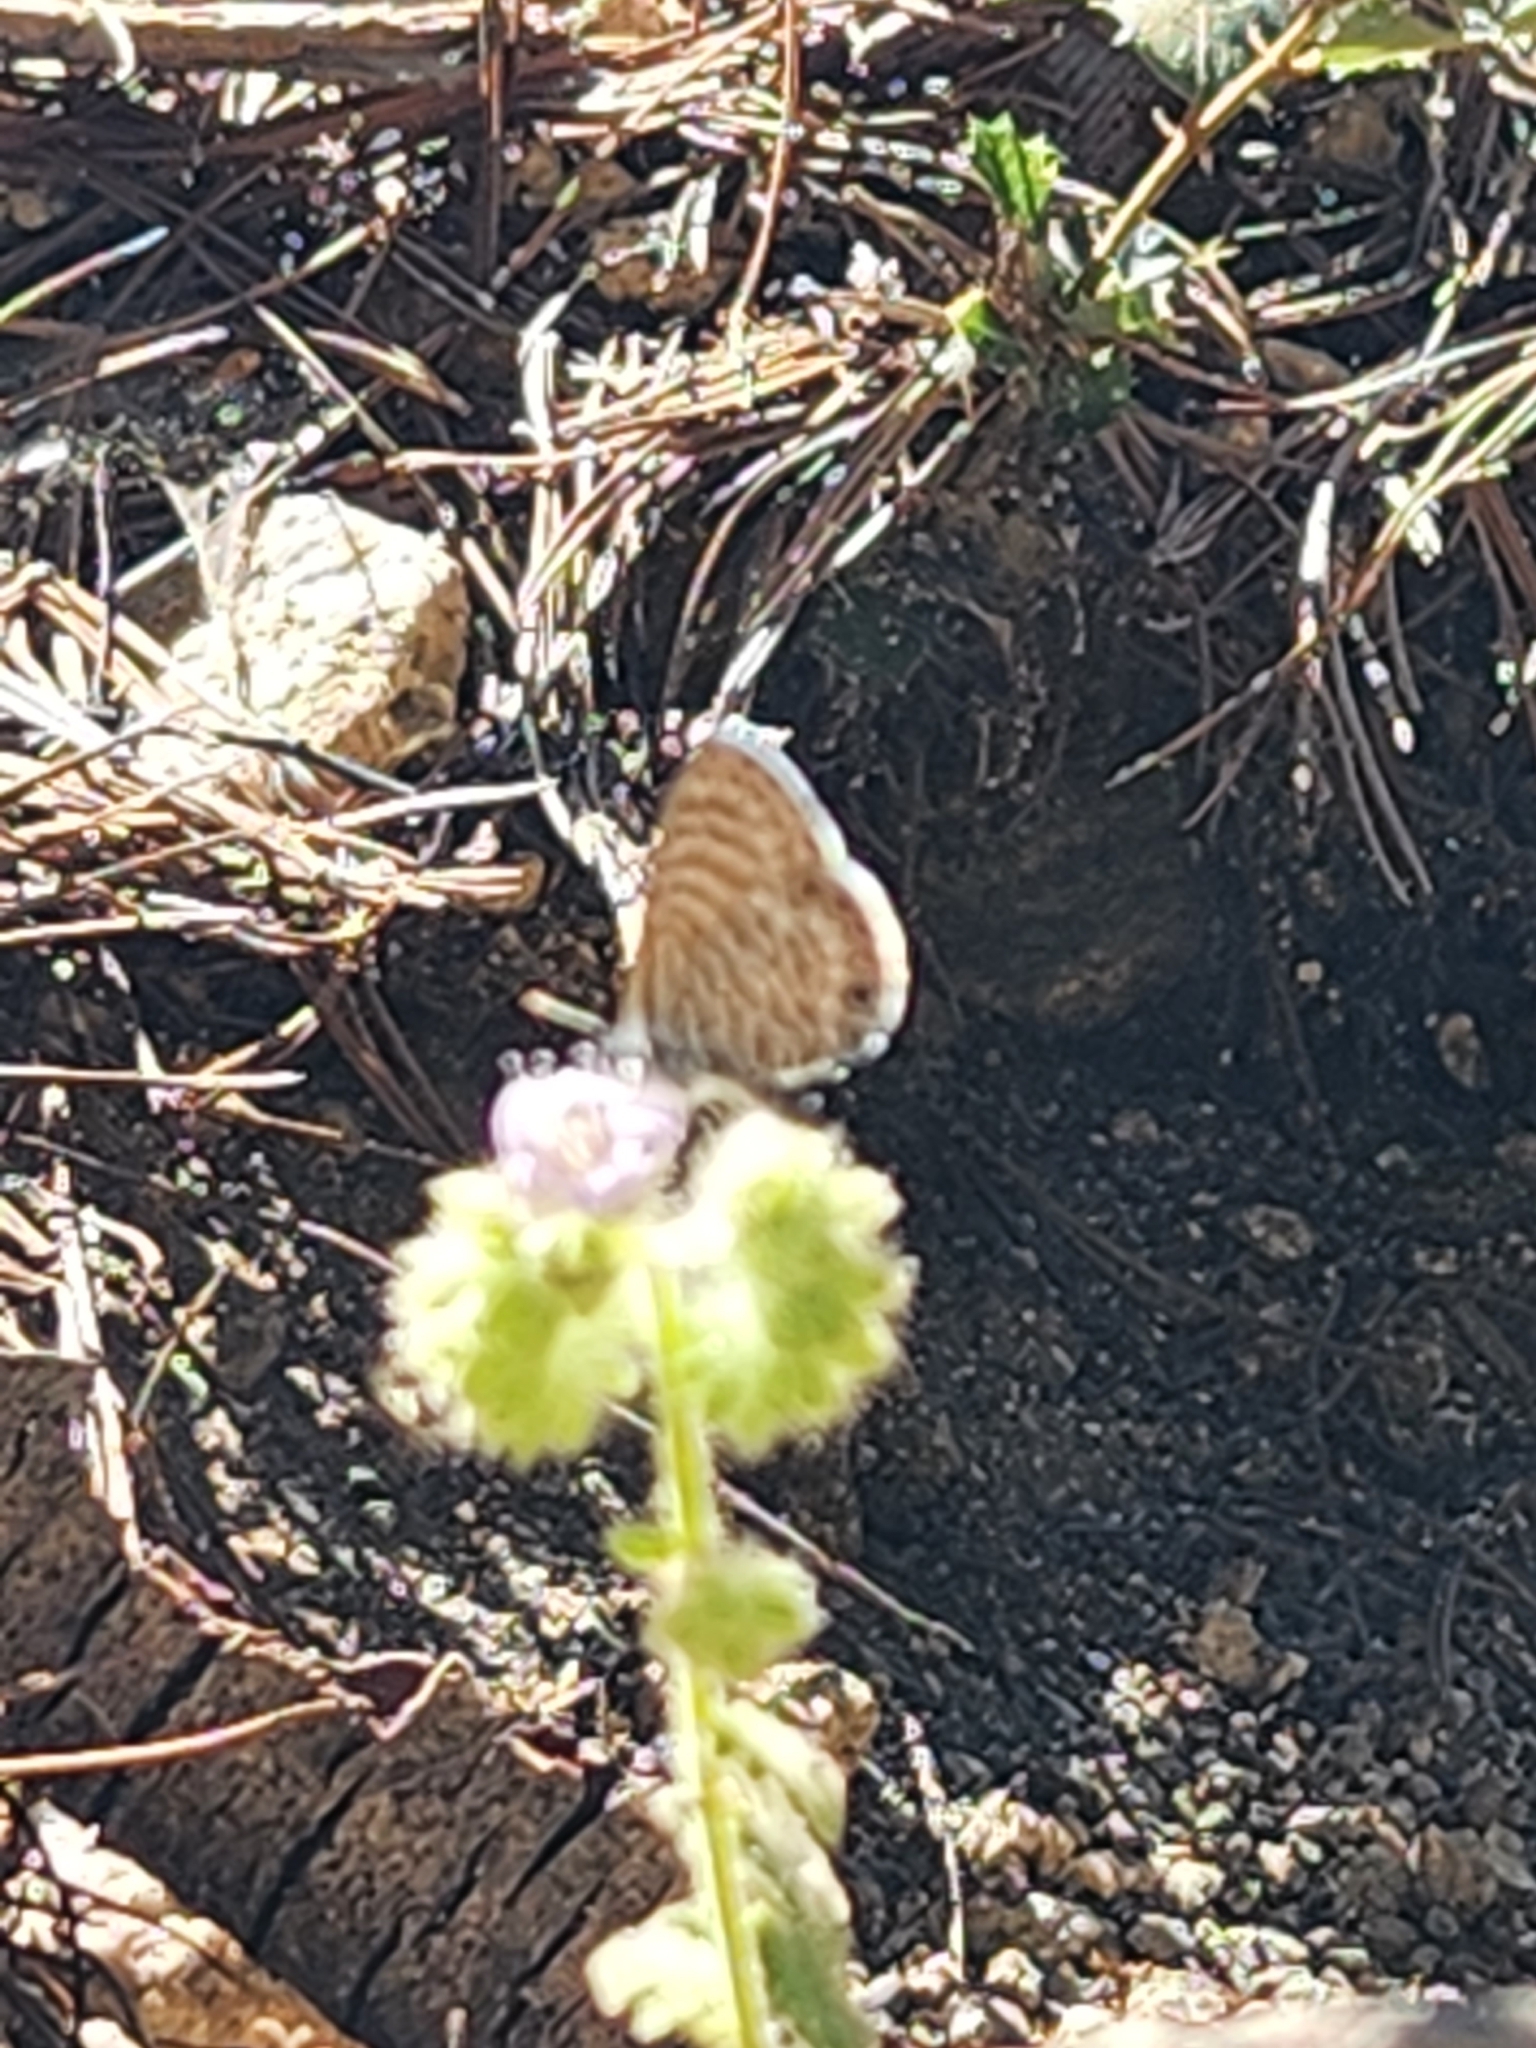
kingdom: Animalia
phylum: Arthropoda
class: Insecta
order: Lepidoptera
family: Lycaenidae
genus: Leptotes
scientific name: Leptotes marina
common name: Marine blue
